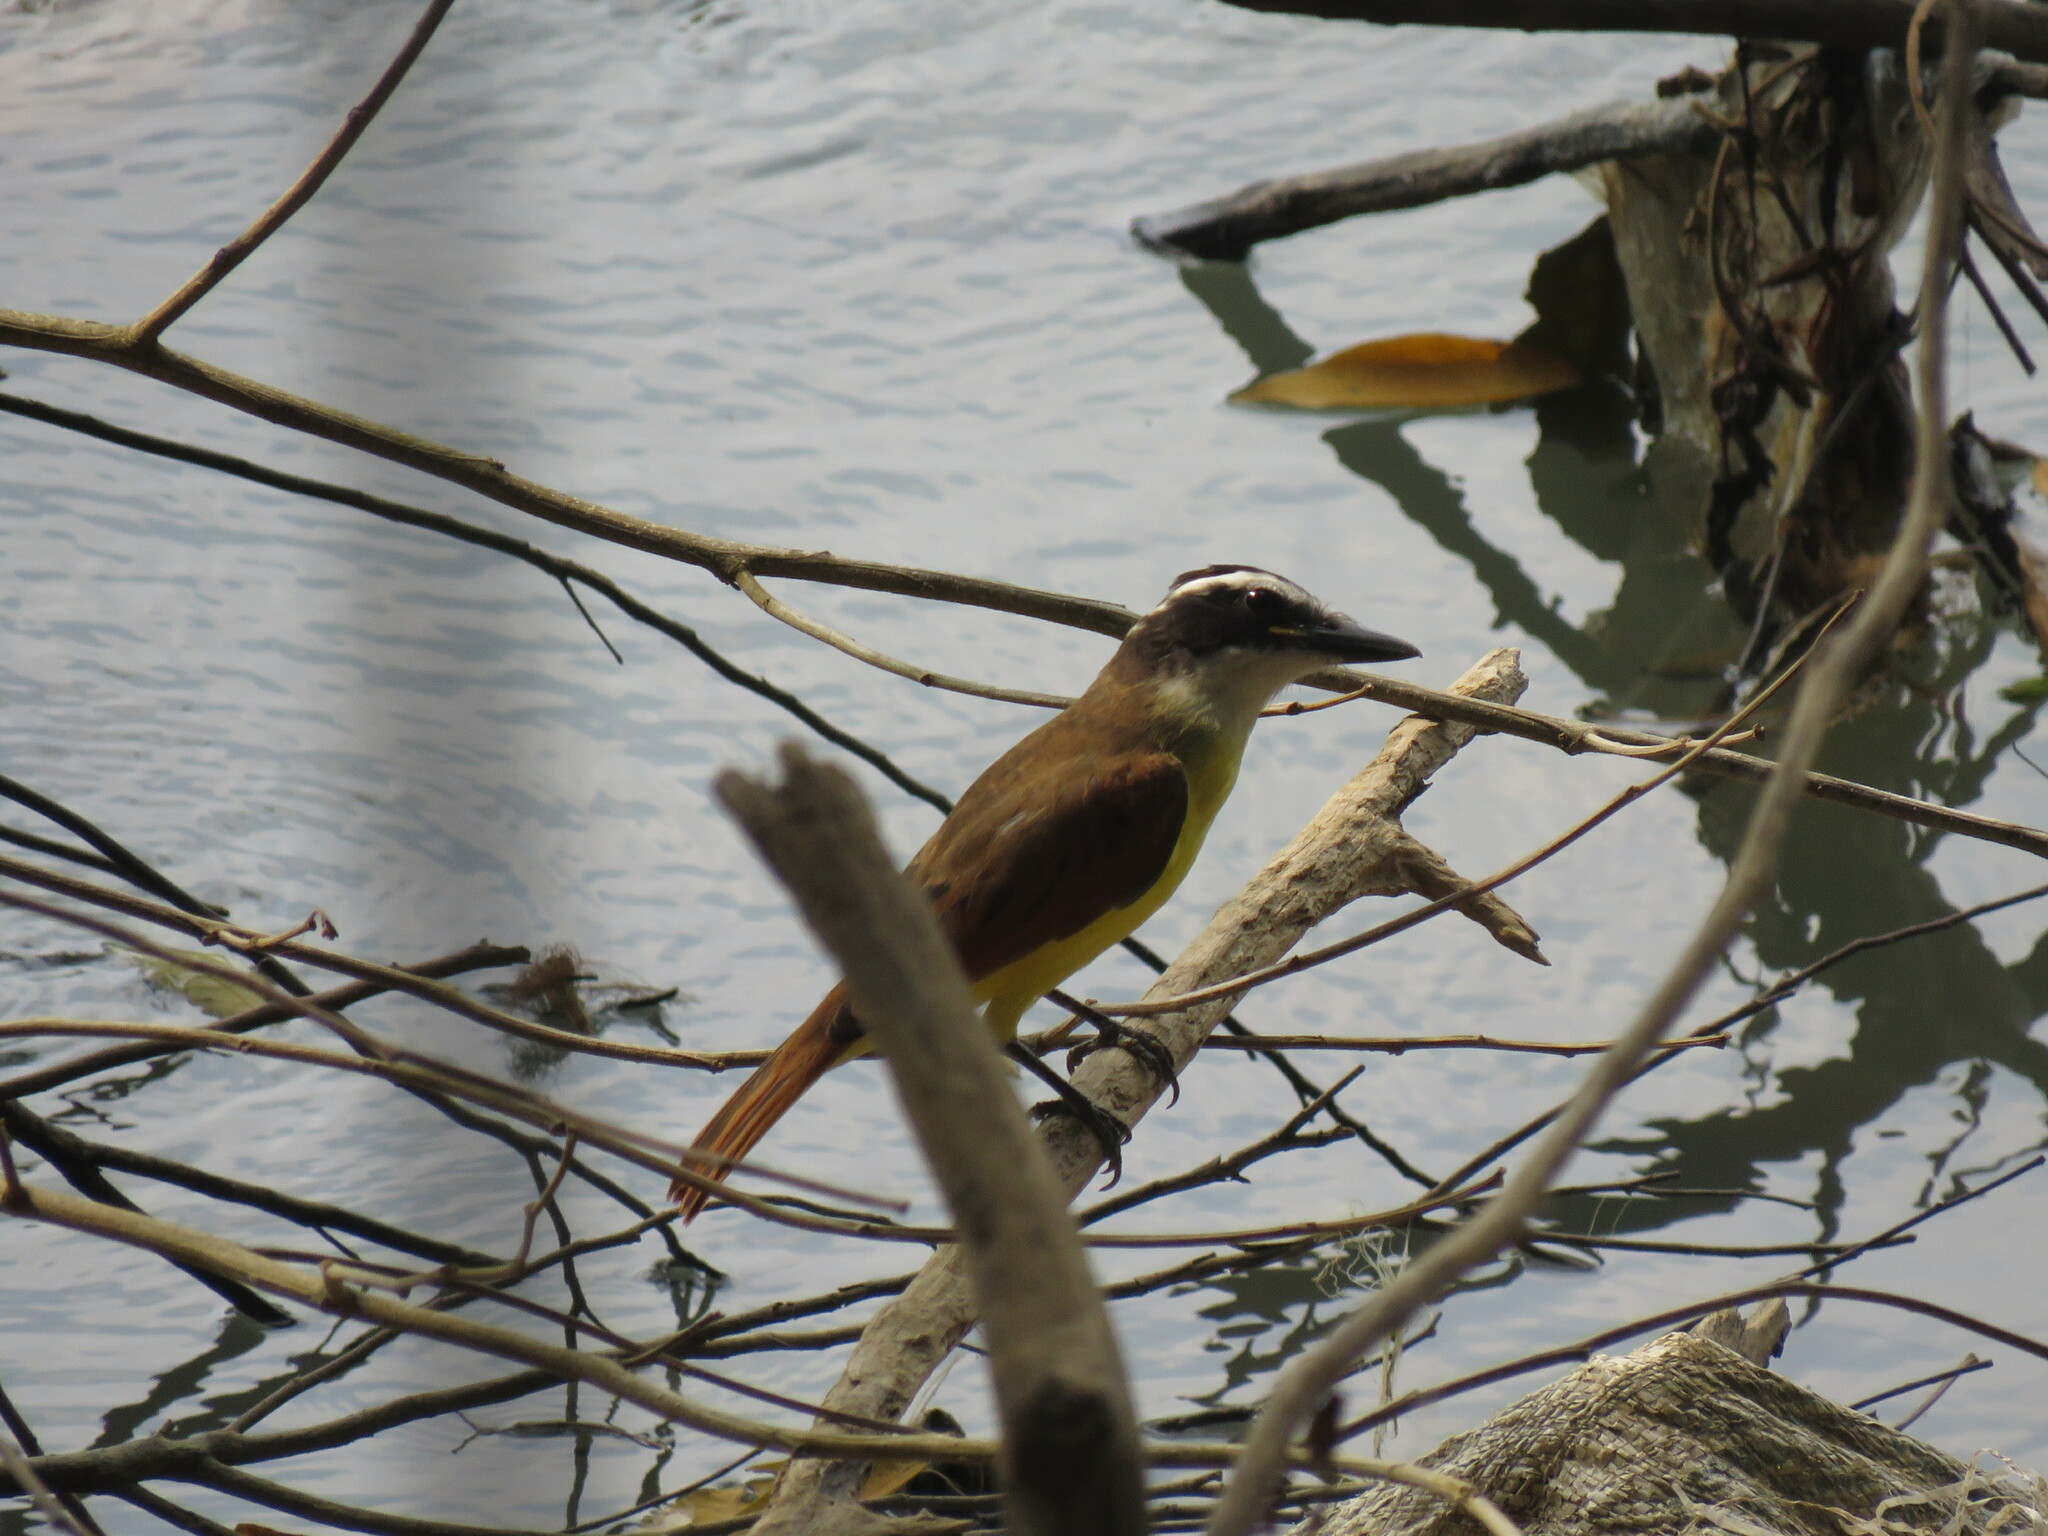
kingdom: Animalia
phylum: Chordata
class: Aves
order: Passeriformes
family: Tyrannidae
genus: Pitangus
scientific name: Pitangus sulphuratus
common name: Great kiskadee
